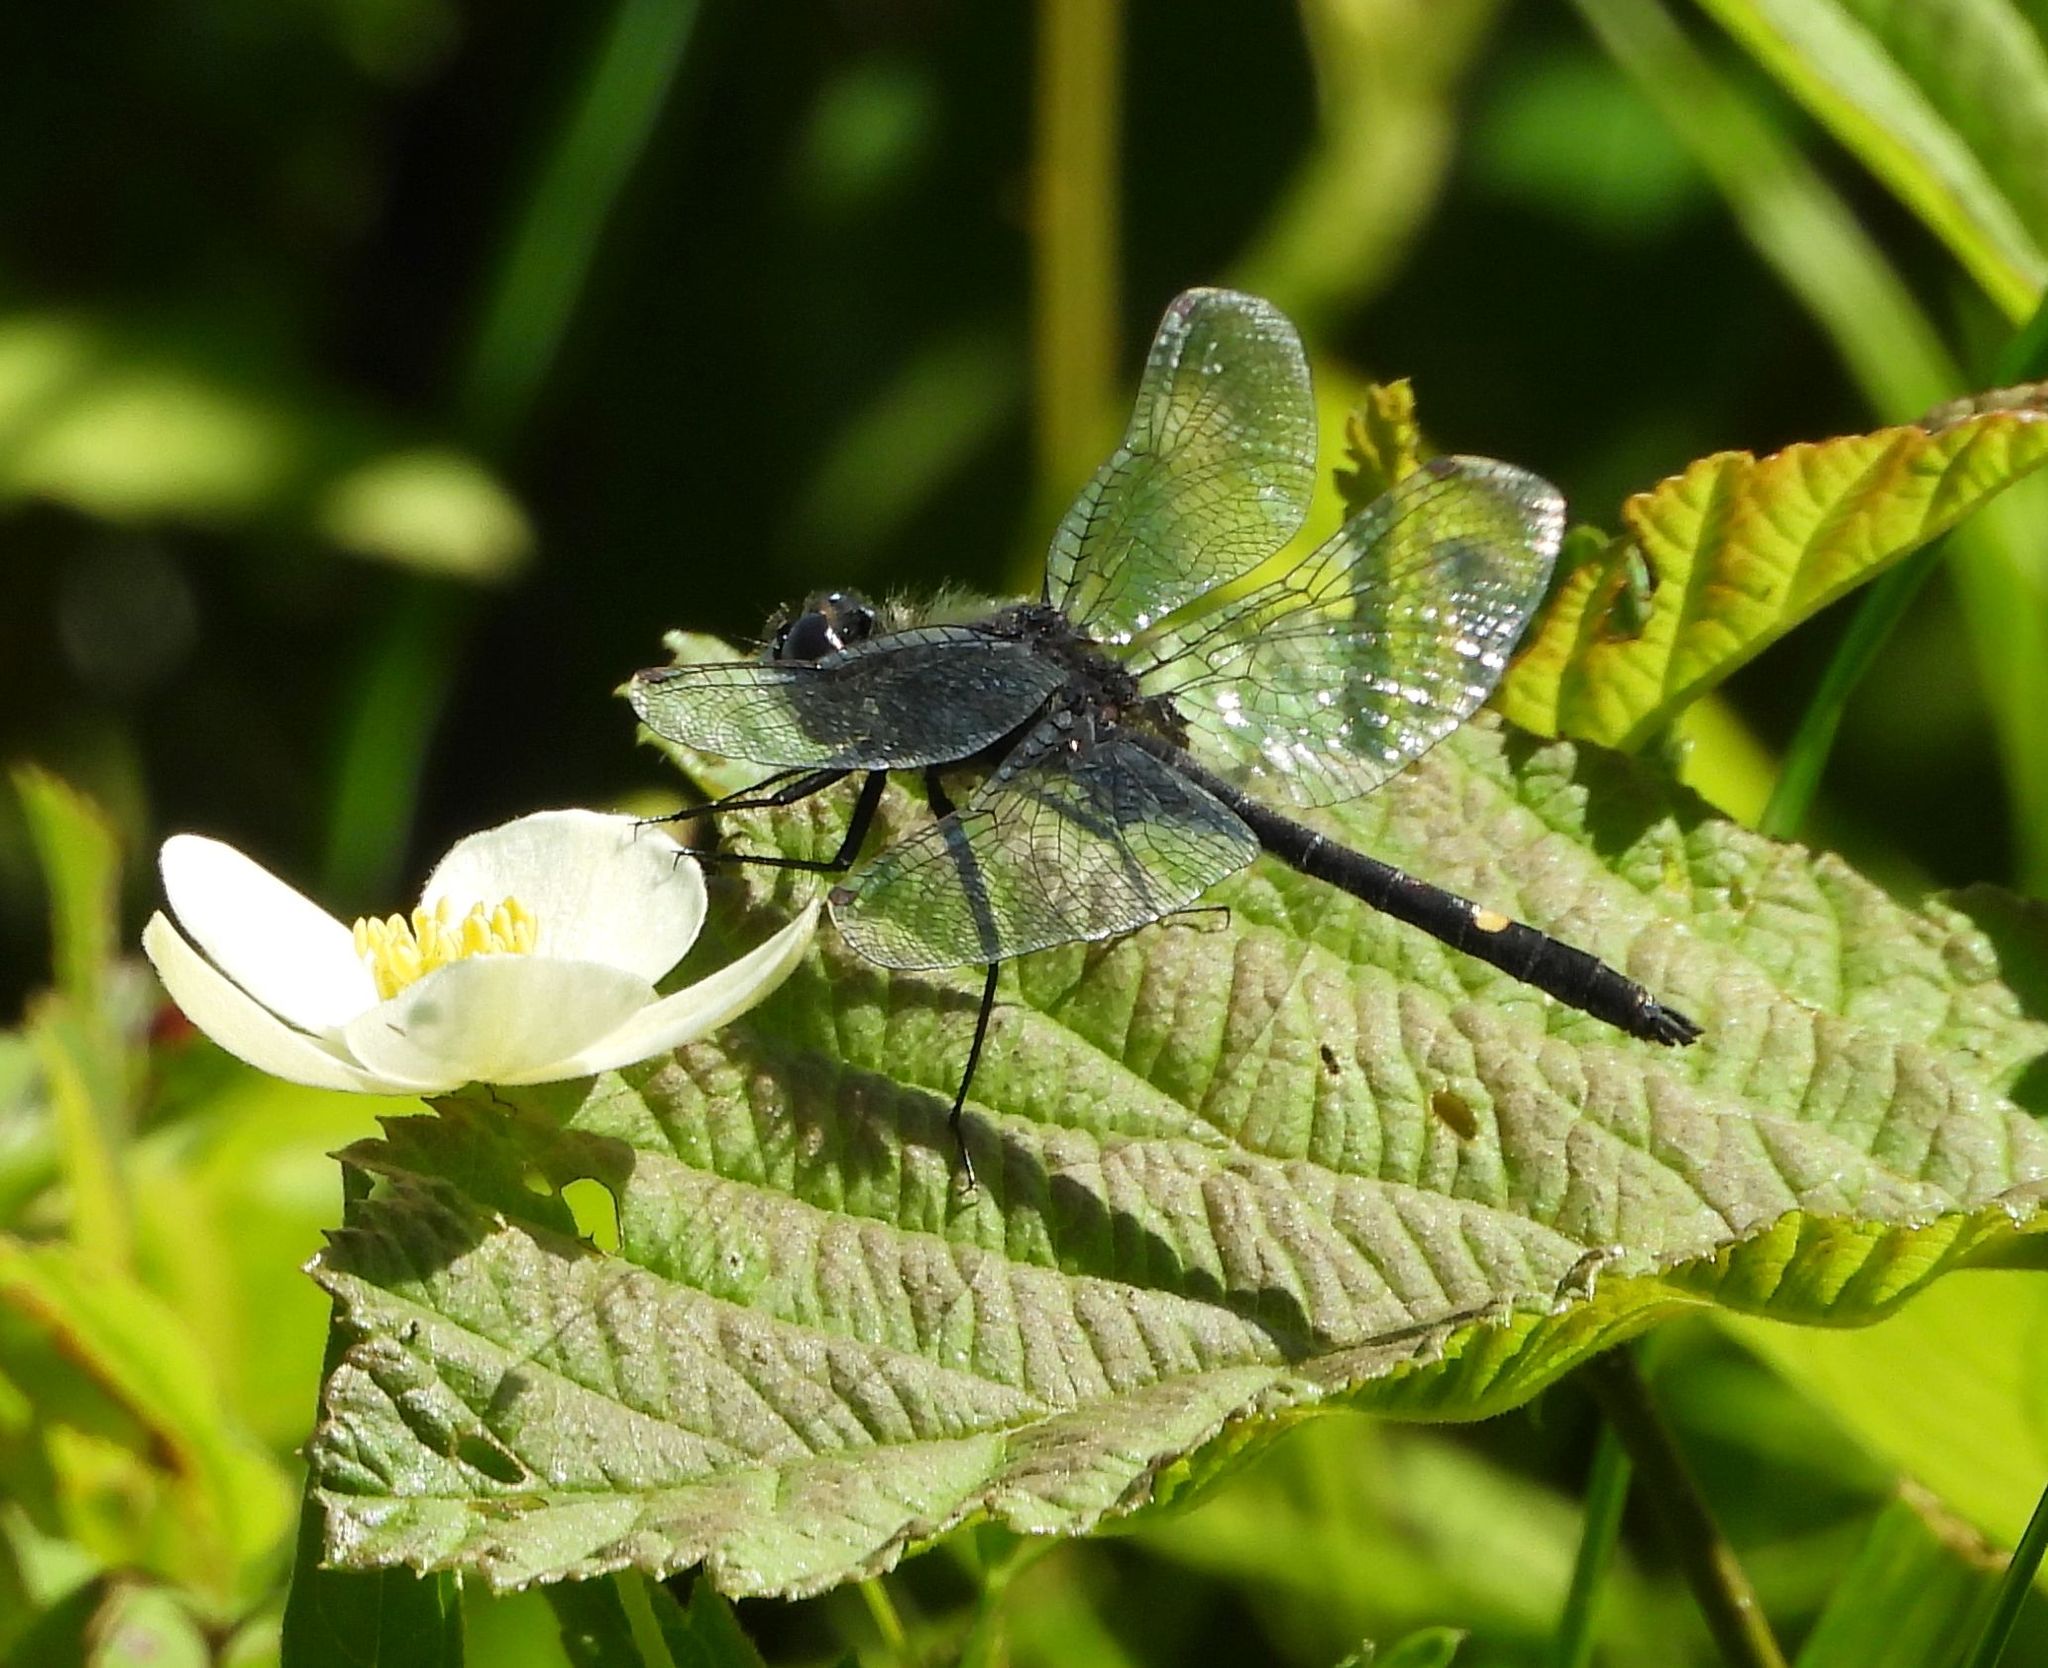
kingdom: Animalia
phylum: Arthropoda
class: Insecta
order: Odonata
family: Libellulidae
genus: Leucorrhinia
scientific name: Leucorrhinia intacta
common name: Dot-tailed whiteface
